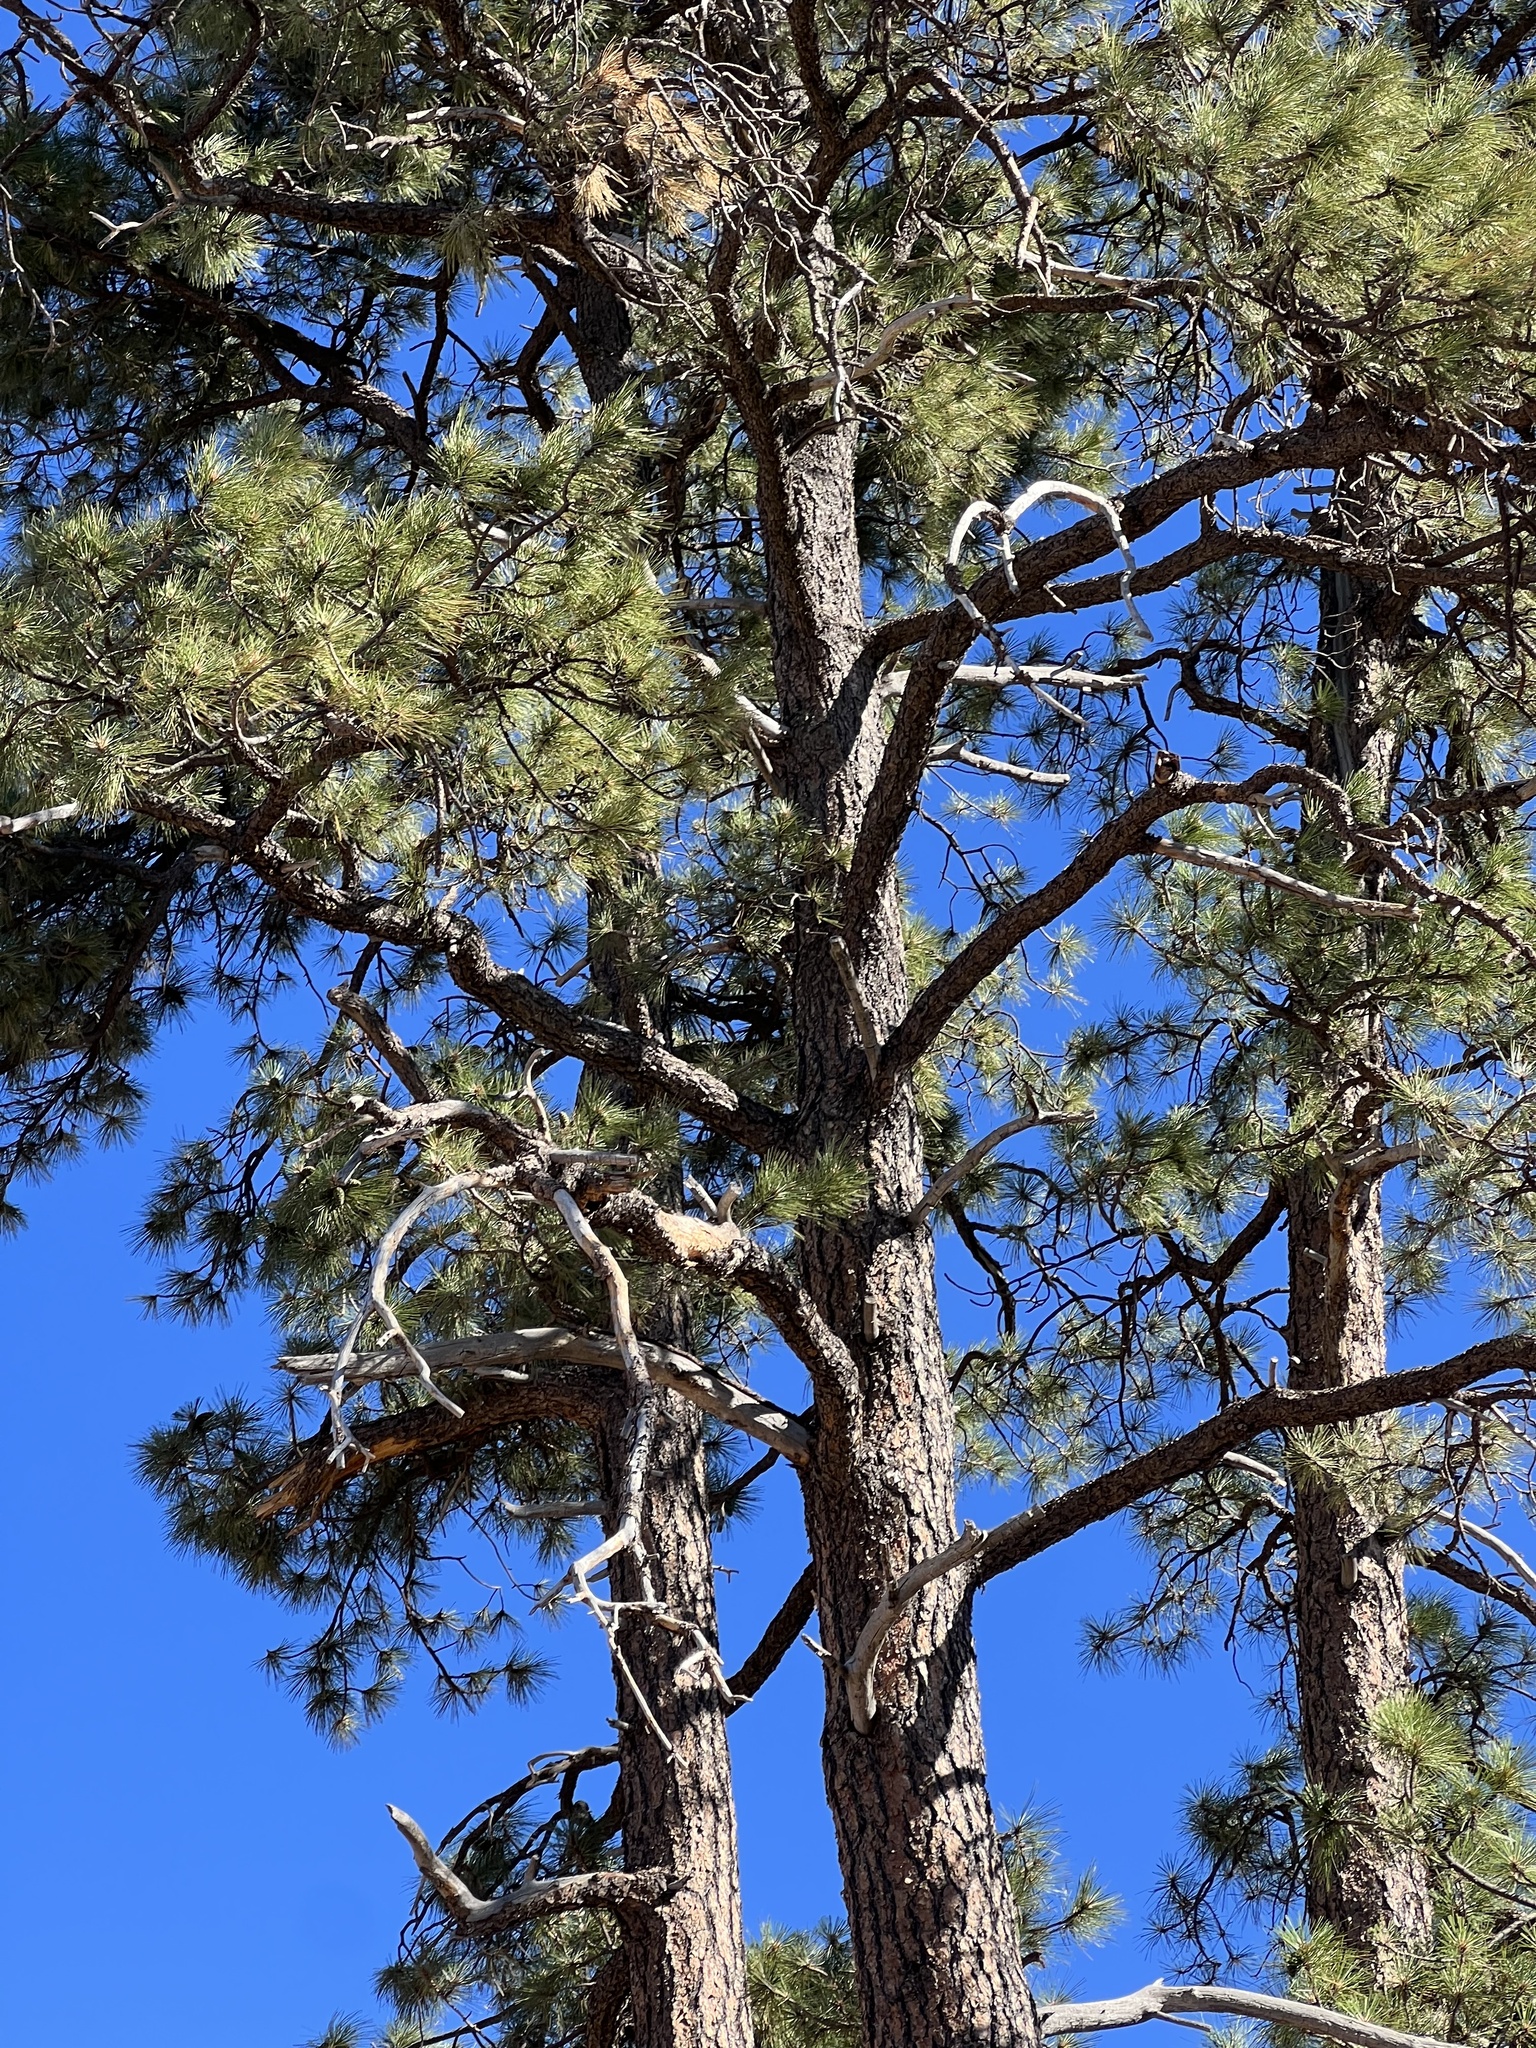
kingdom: Plantae
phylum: Tracheophyta
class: Pinopsida
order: Pinales
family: Pinaceae
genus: Pinus
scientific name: Pinus ponderosa
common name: Western yellow-pine
